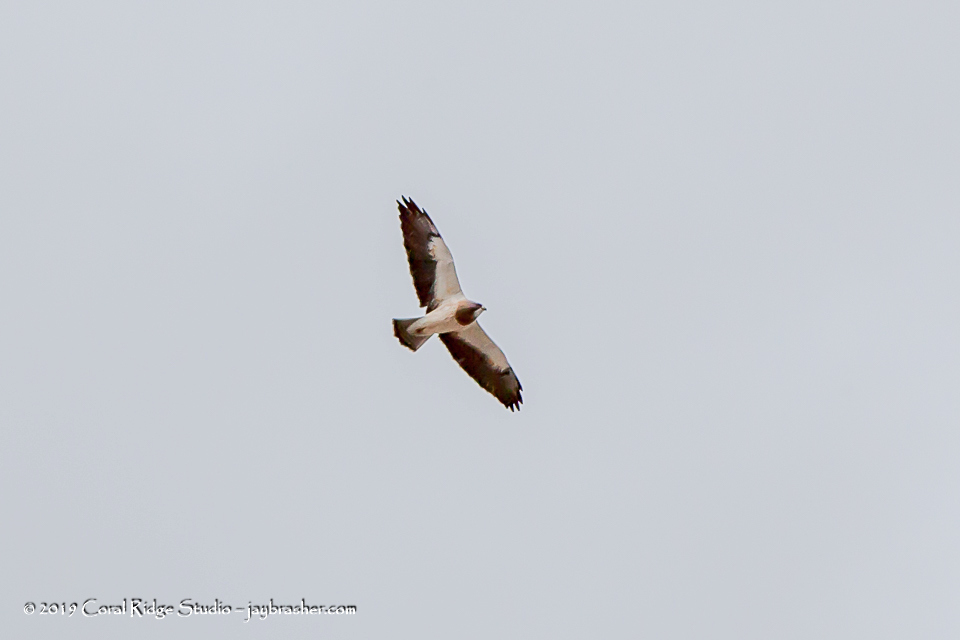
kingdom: Animalia
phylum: Chordata
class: Aves
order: Accipitriformes
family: Accipitridae
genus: Buteo
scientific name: Buteo swainsoni
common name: Swainson's hawk
